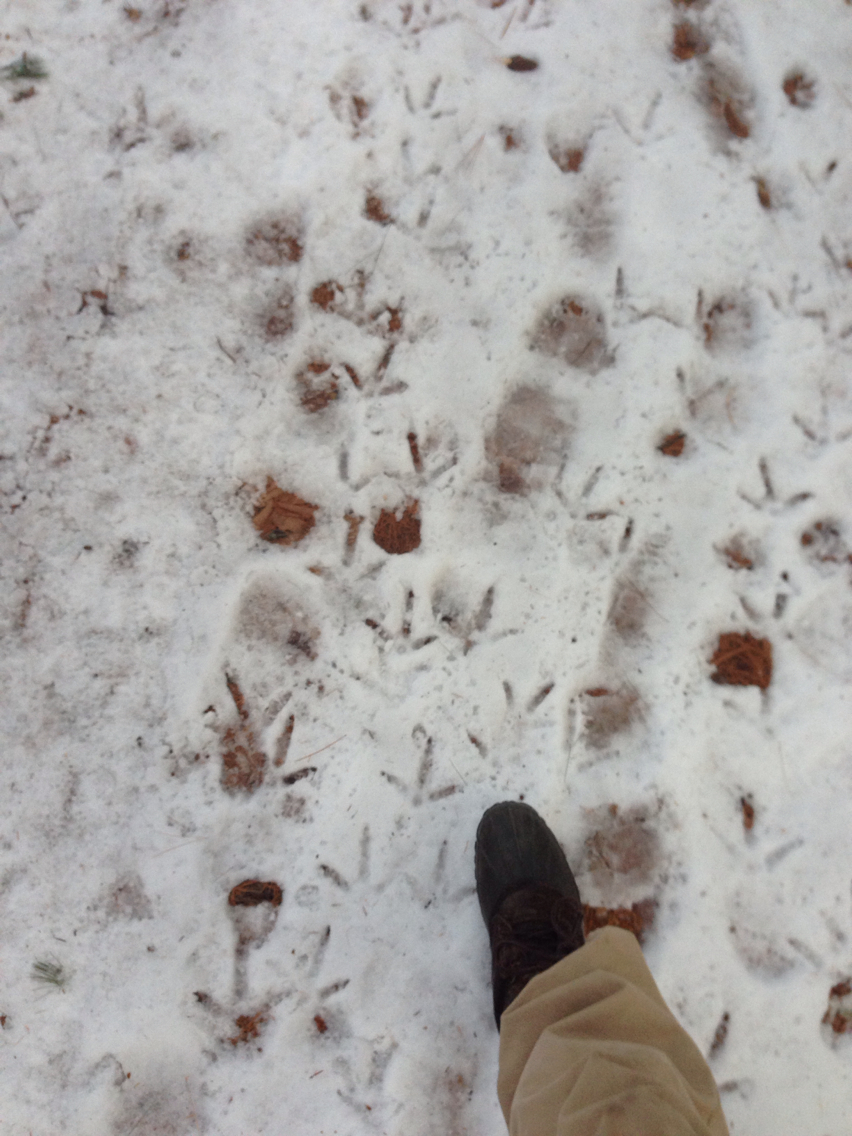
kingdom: Animalia
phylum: Chordata
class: Aves
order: Galliformes
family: Phasianidae
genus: Meleagris
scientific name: Meleagris gallopavo
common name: Wild turkey
